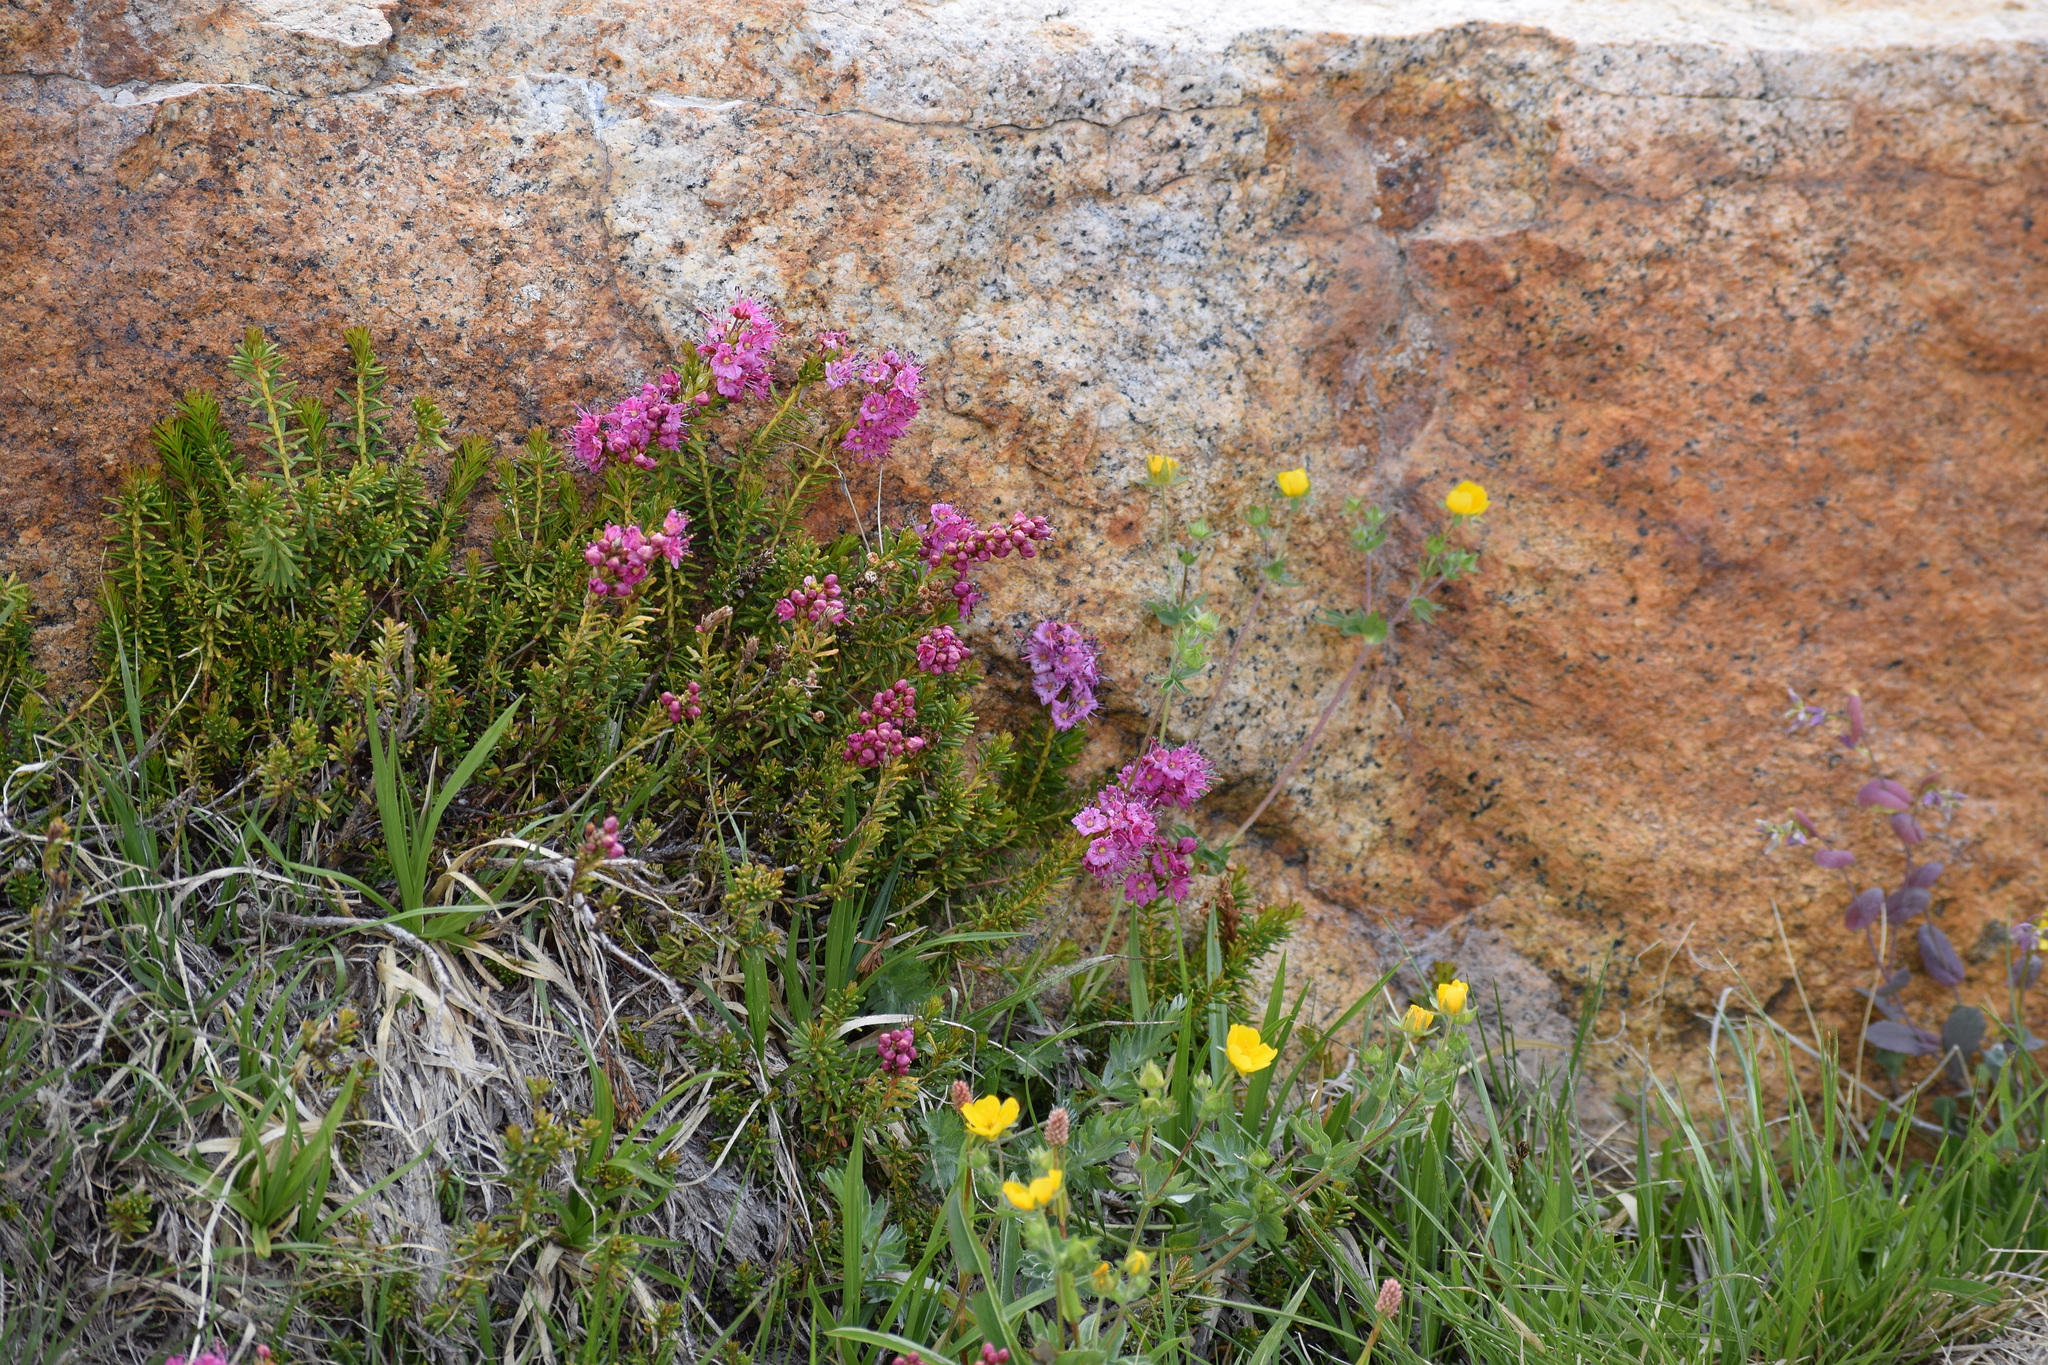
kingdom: Plantae
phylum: Tracheophyta
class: Magnoliopsida
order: Ericales
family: Ericaceae
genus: Phyllodoce
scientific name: Phyllodoce breweri
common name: Brewer's mountain-heather
